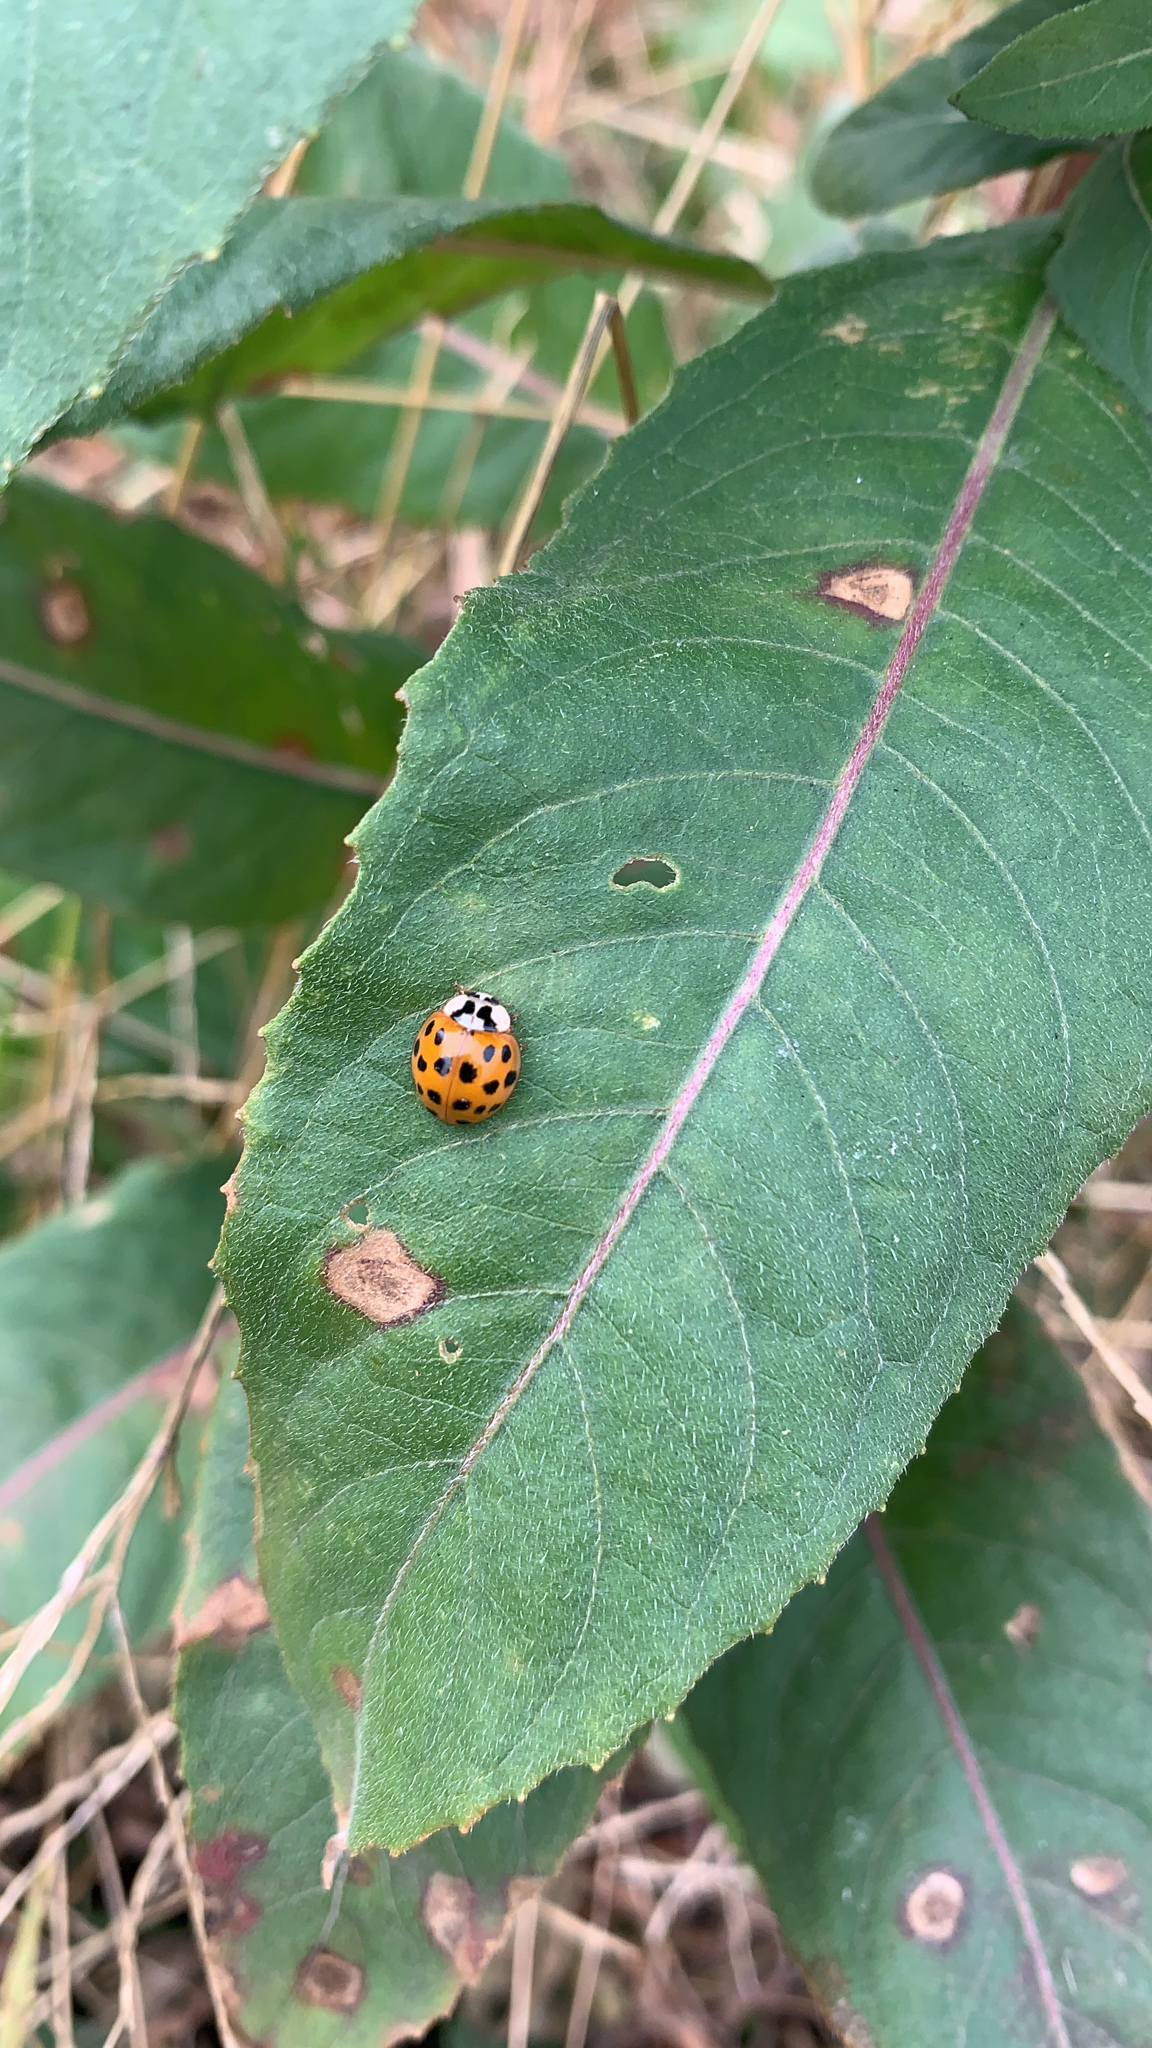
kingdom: Animalia
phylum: Arthropoda
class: Insecta
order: Coleoptera
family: Coccinellidae
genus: Harmonia
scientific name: Harmonia axyridis
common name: Harlequin ladybird
